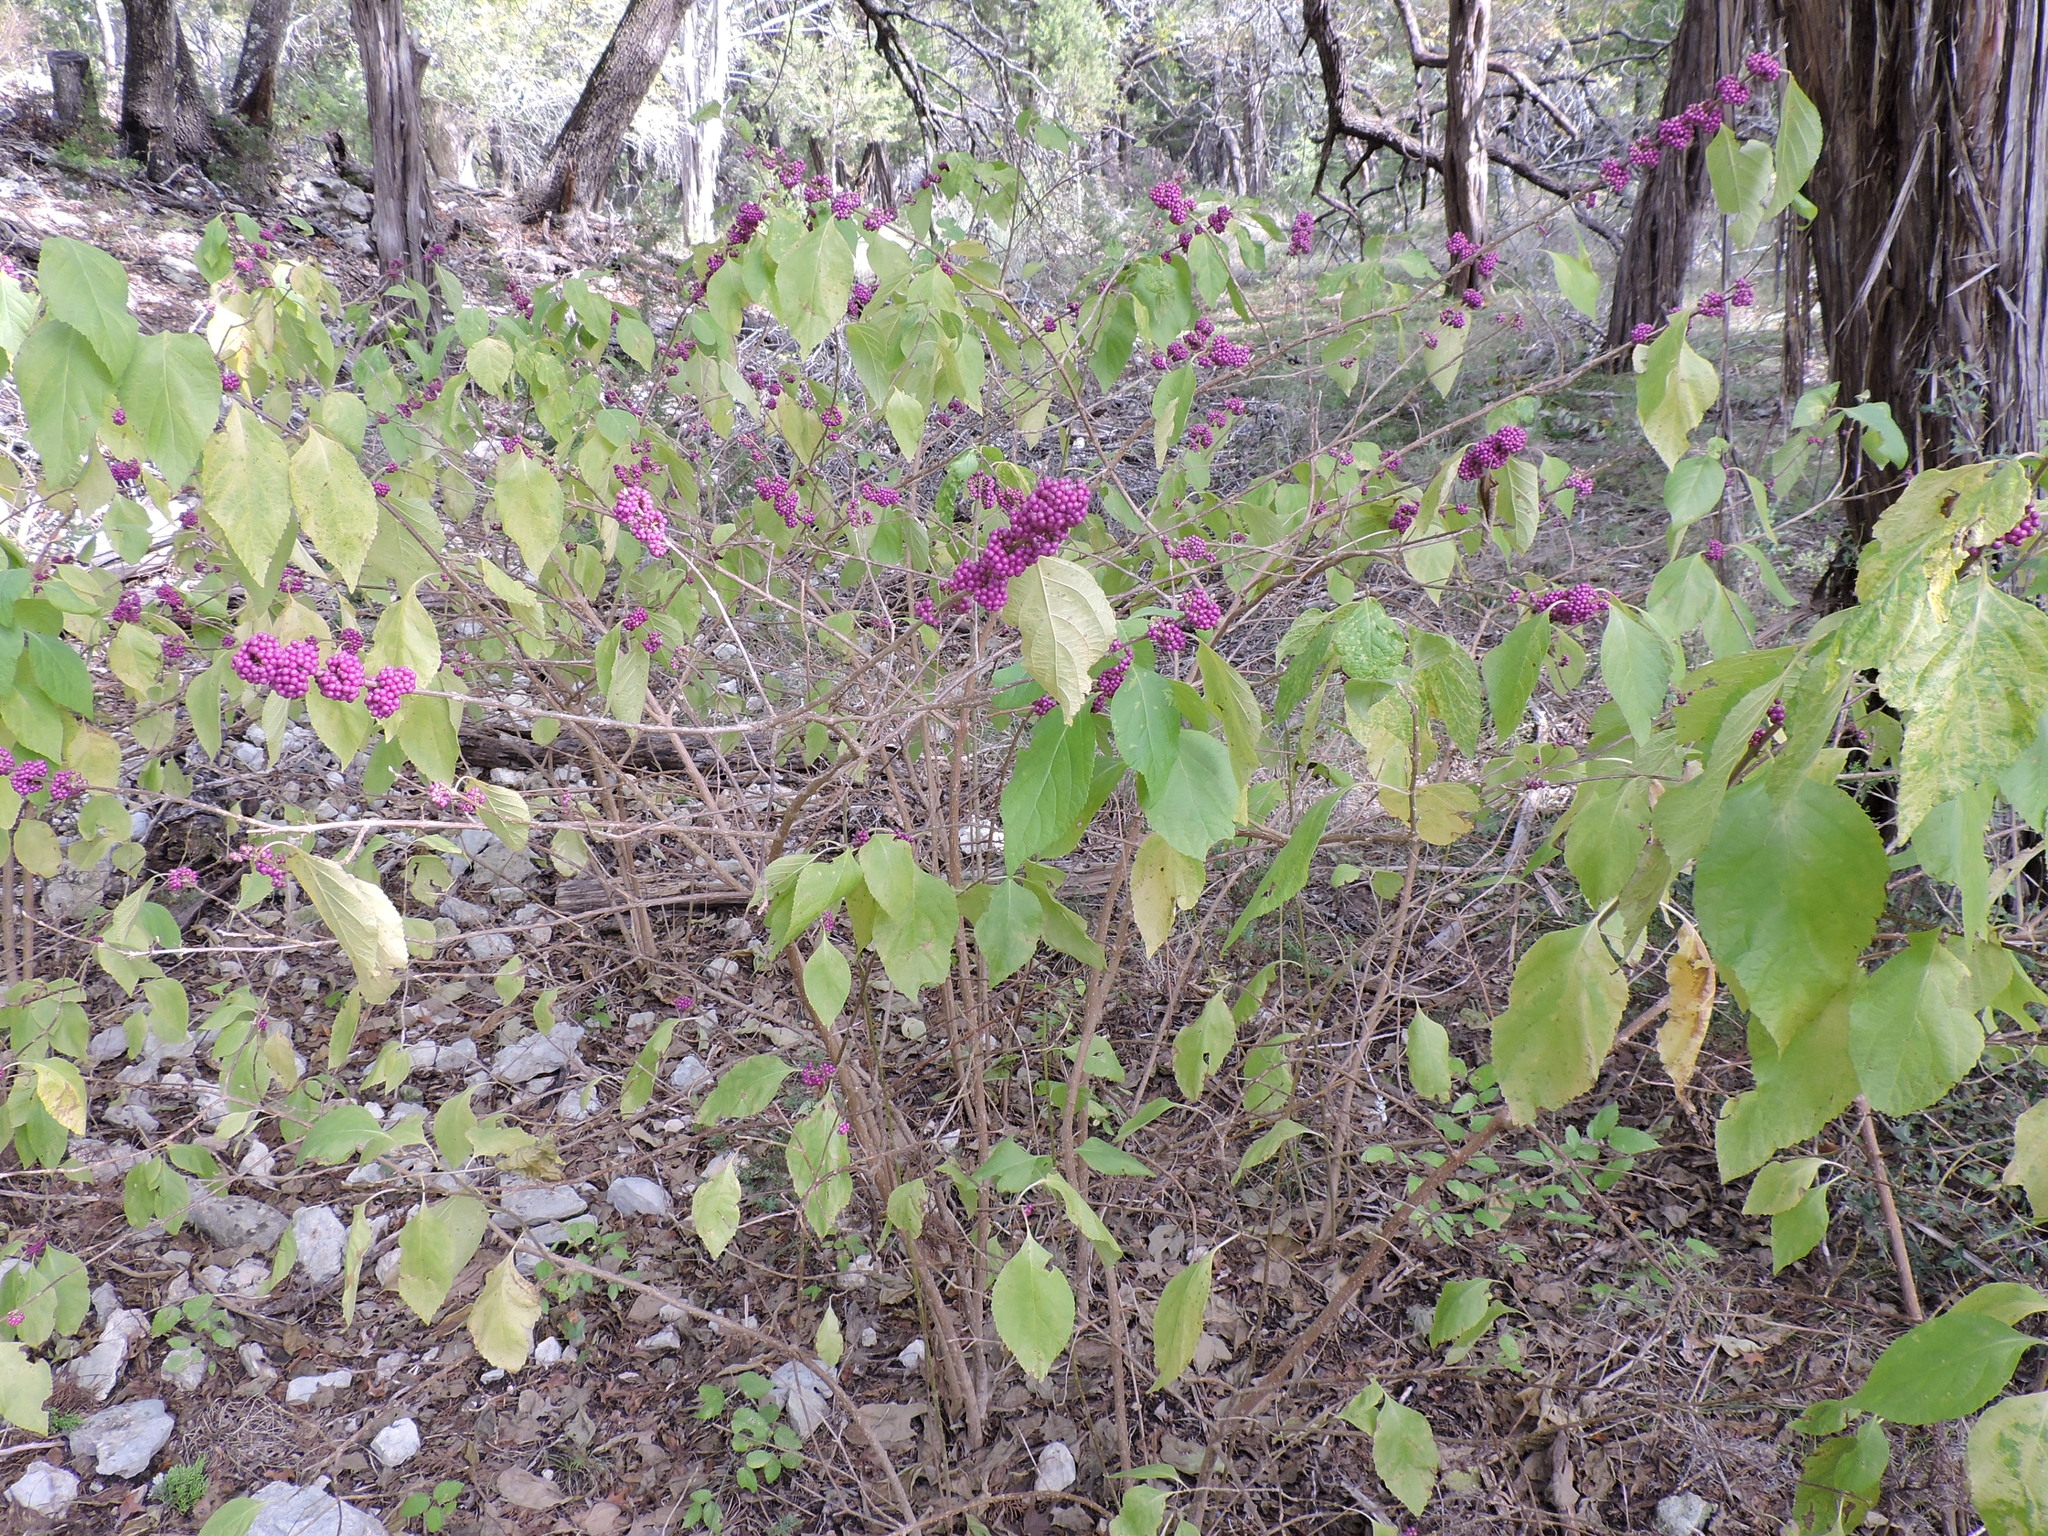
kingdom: Plantae
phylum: Tracheophyta
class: Magnoliopsida
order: Lamiales
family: Lamiaceae
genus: Callicarpa
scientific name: Callicarpa americana
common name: American beautyberry
